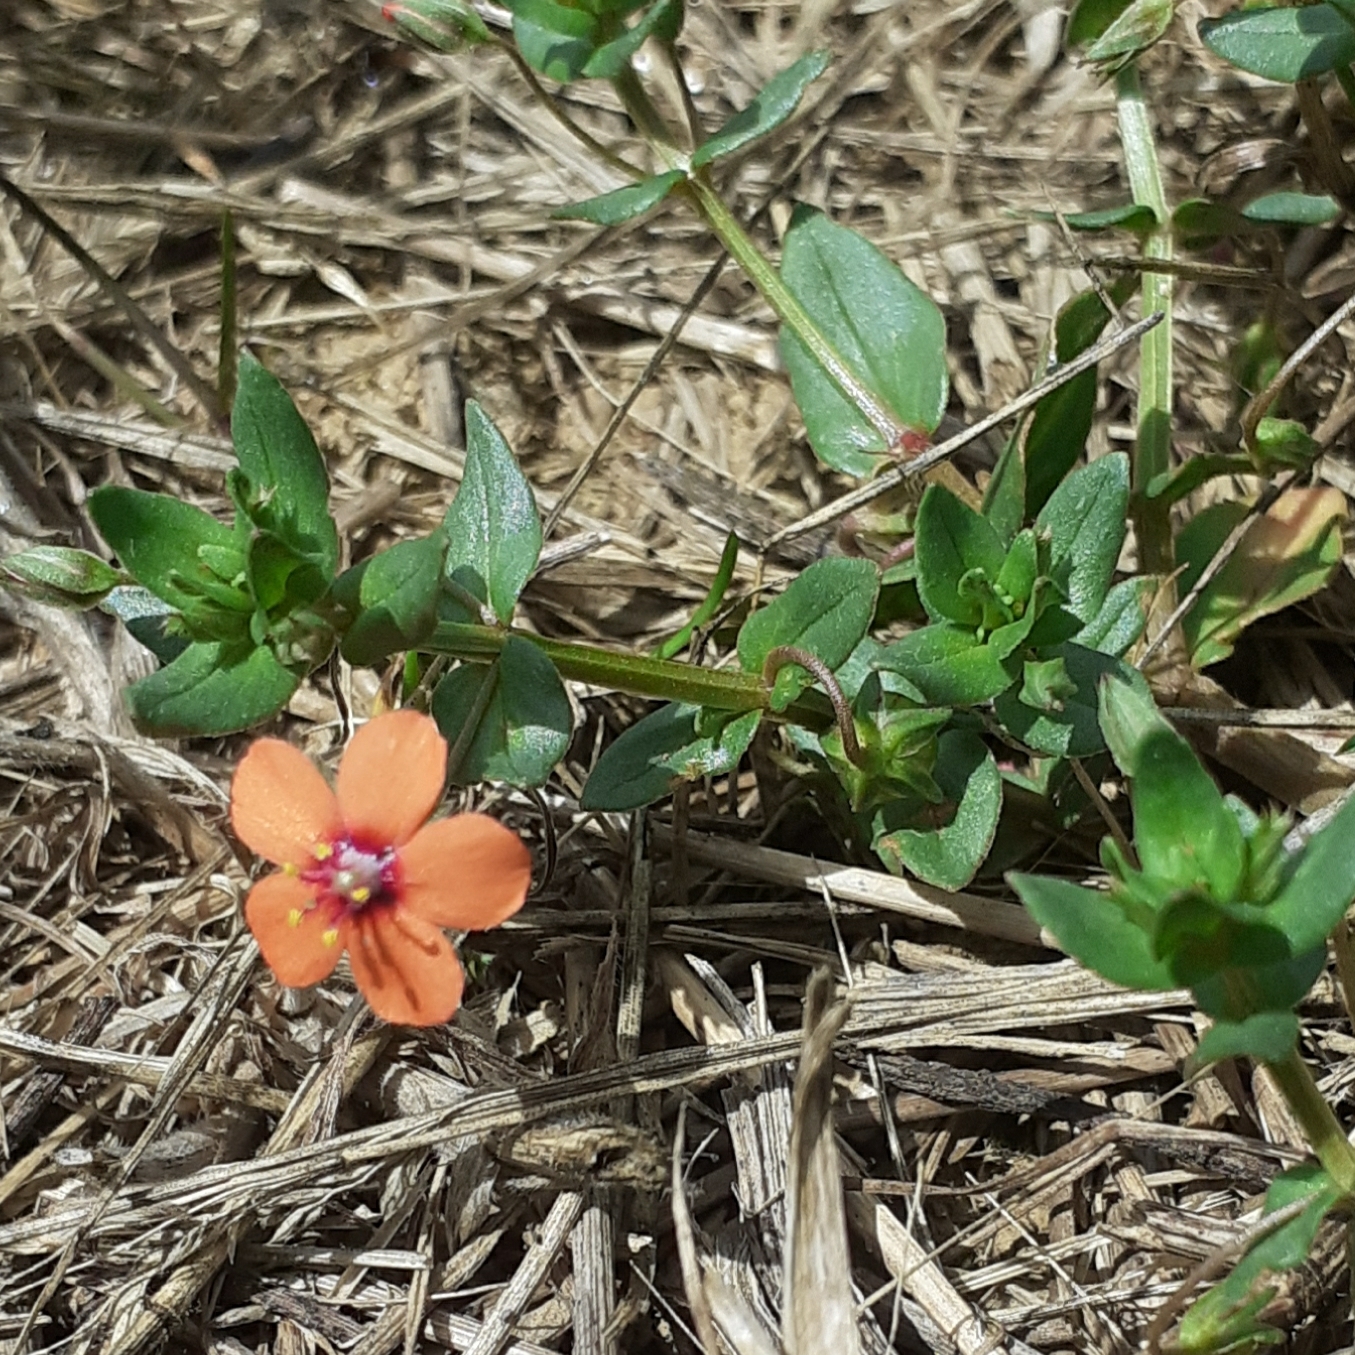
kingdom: Plantae
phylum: Tracheophyta
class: Magnoliopsida
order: Ericales
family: Primulaceae
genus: Lysimachia
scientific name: Lysimachia arvensis
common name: Scarlet pimpernel
